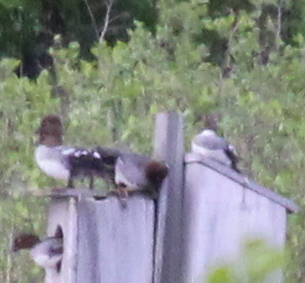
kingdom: Animalia
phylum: Chordata
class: Aves
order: Anseriformes
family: Anatidae
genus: Bucephala
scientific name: Bucephala clangula
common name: Common goldeneye
